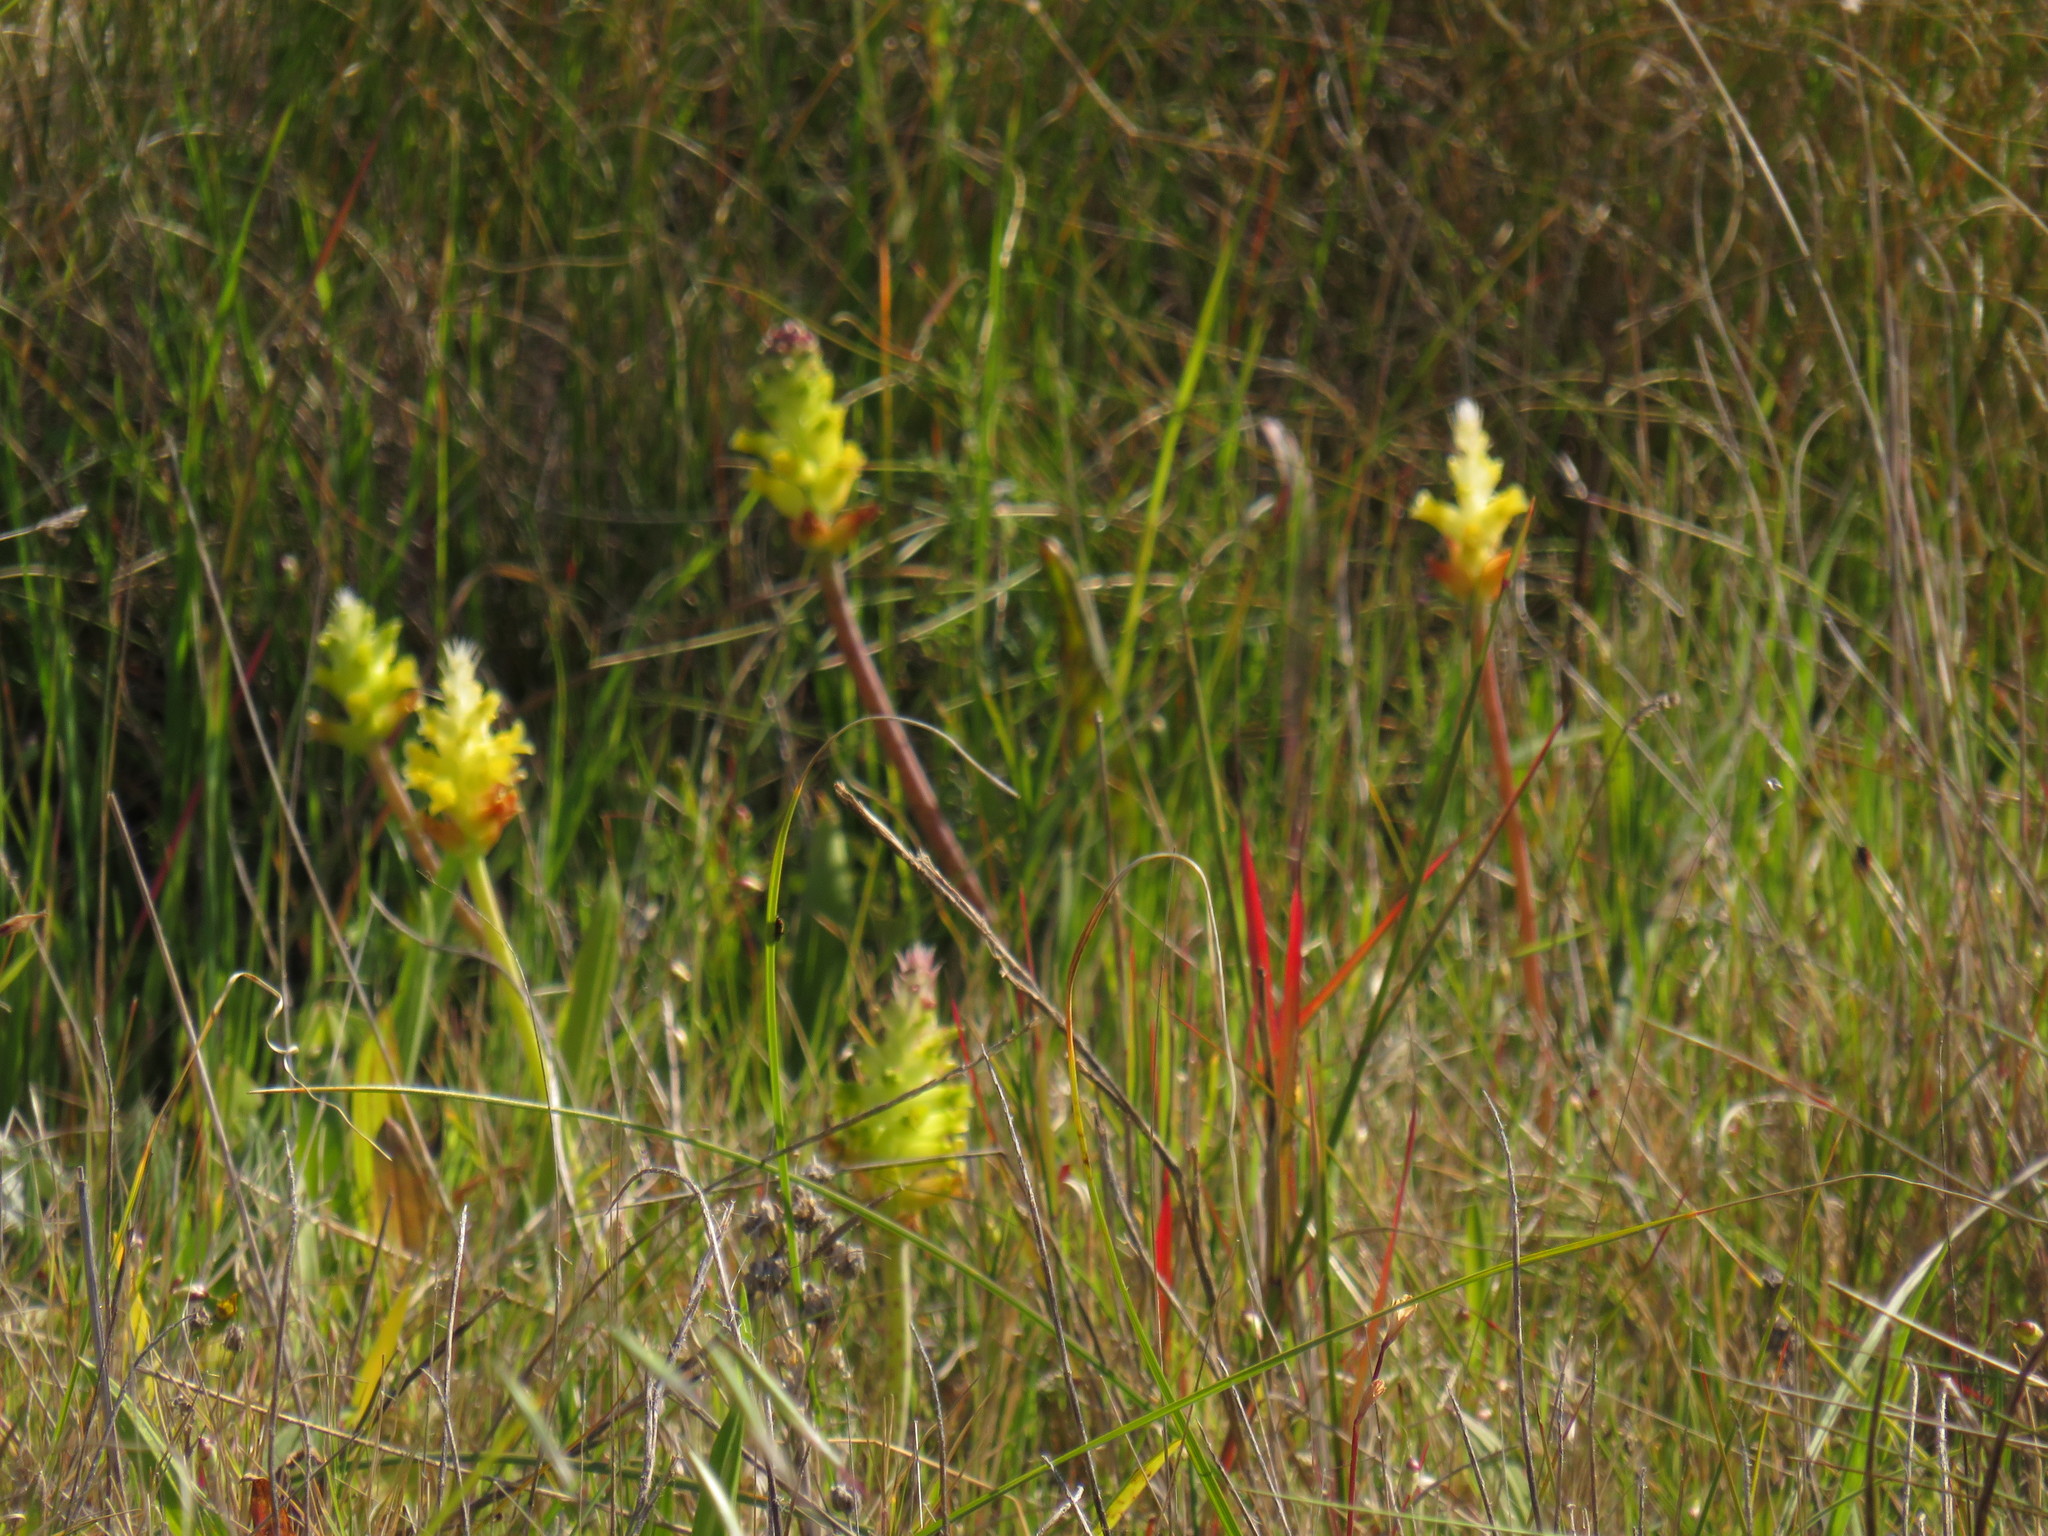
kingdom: Plantae
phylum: Tracheophyta
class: Liliopsida
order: Asparagales
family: Asparagaceae
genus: Lachenalia
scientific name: Lachenalia lutea
